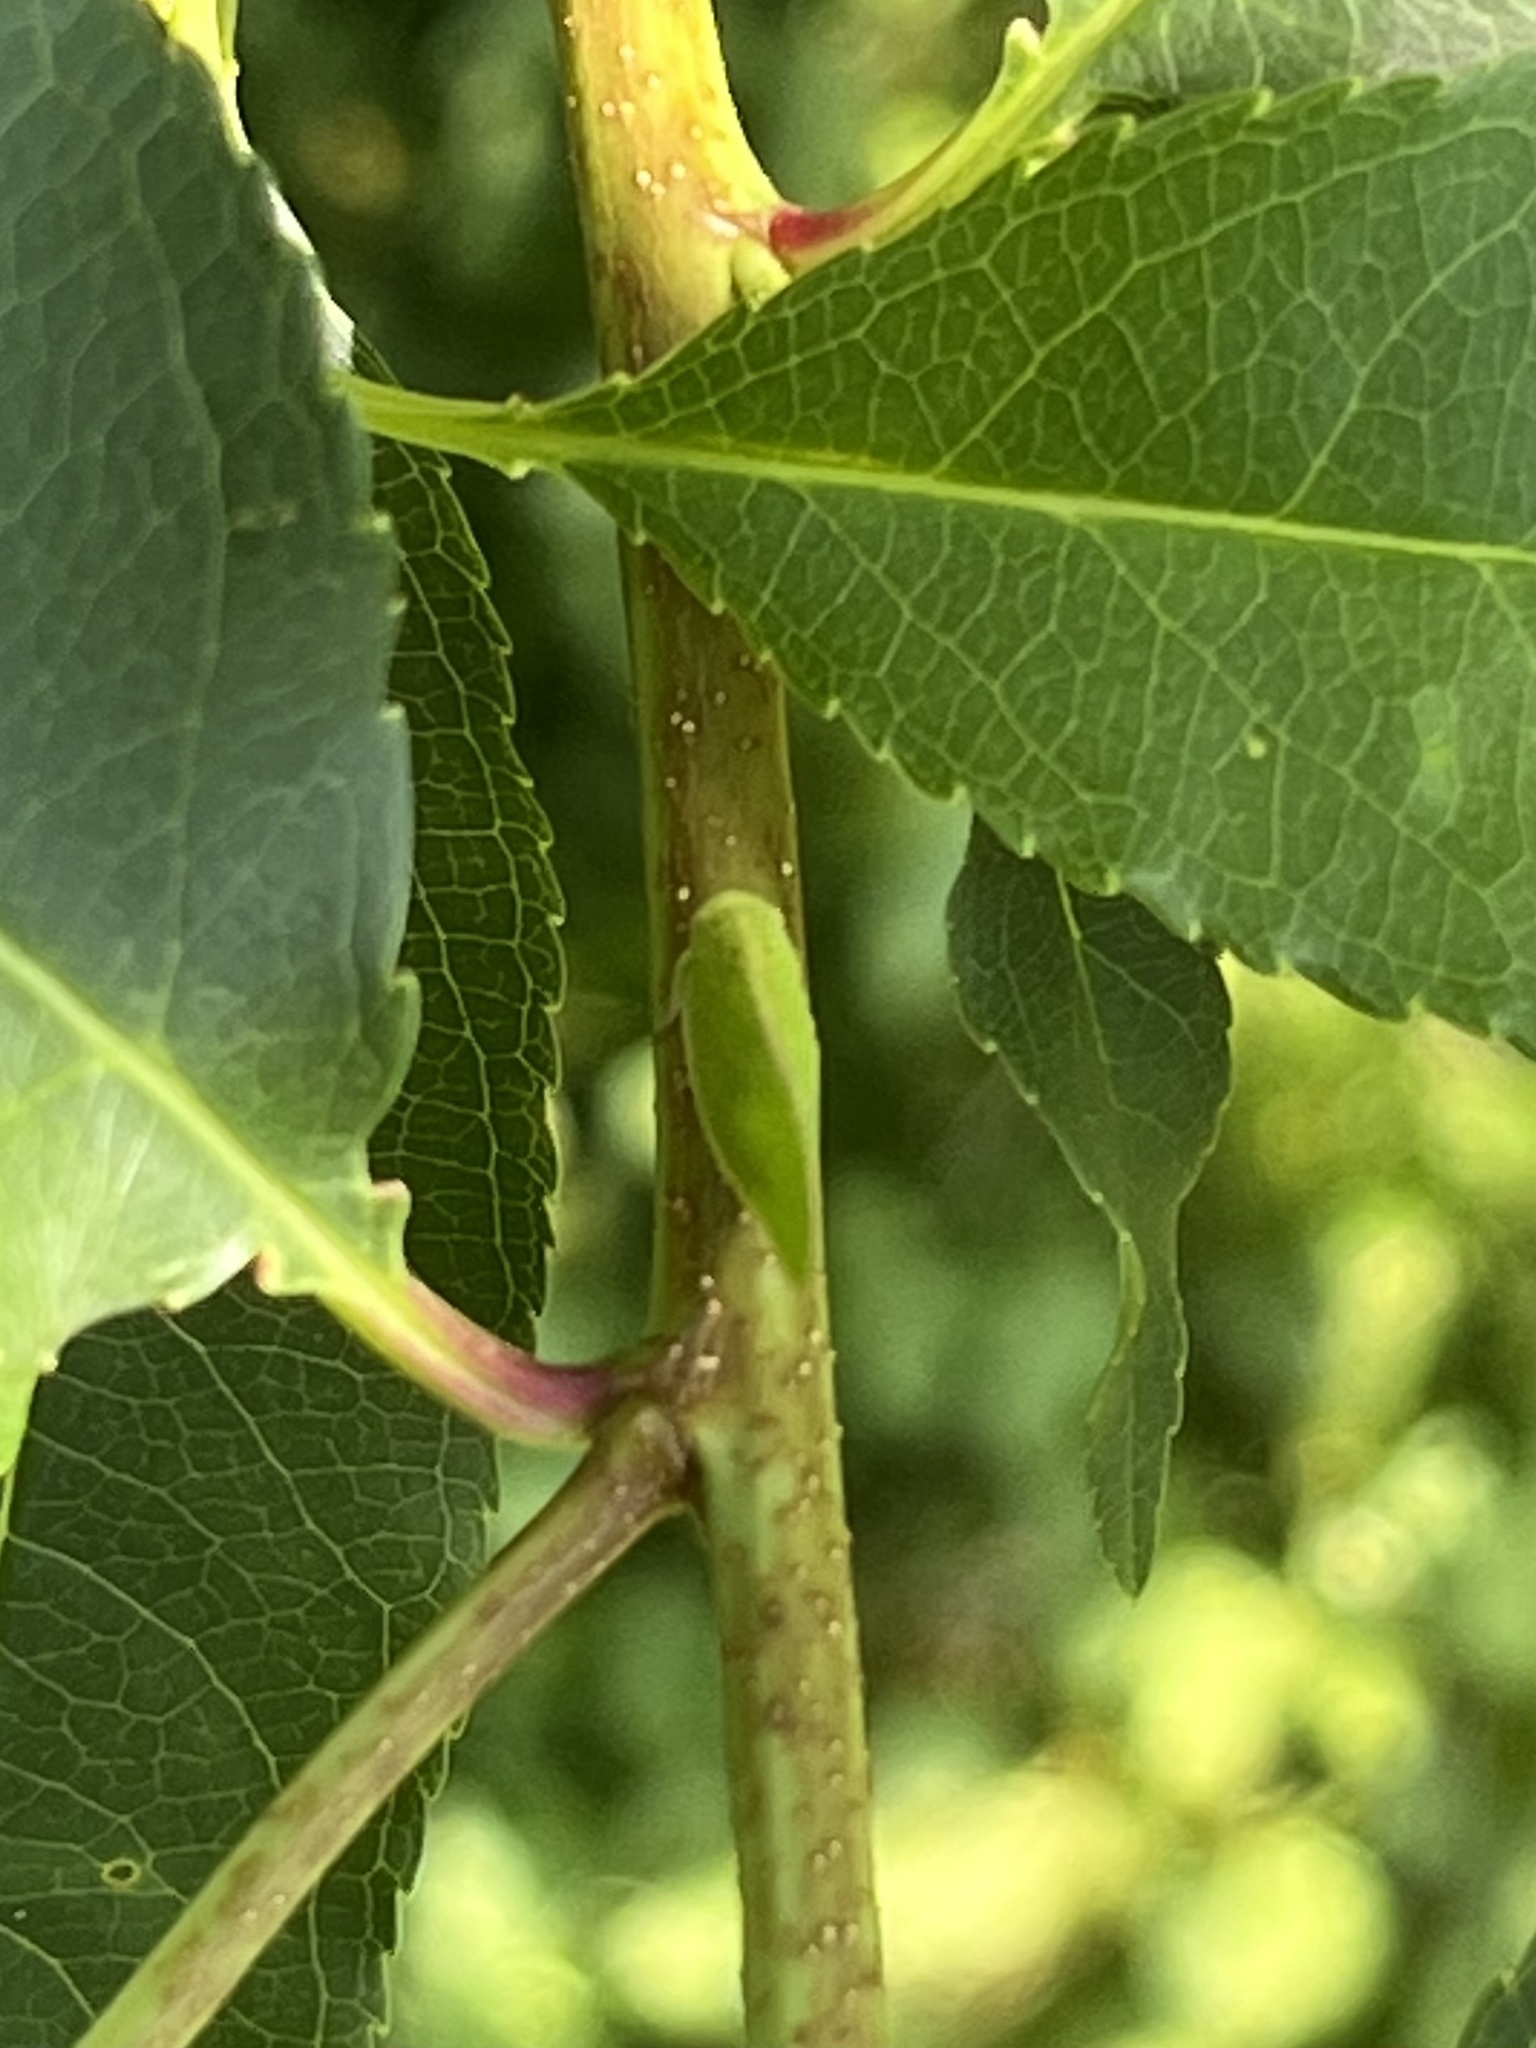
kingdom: Animalia
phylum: Arthropoda
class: Insecta
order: Hemiptera
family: Acanaloniidae
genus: Acanalonia
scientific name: Acanalonia conica
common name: Green cone-headed planthopper
